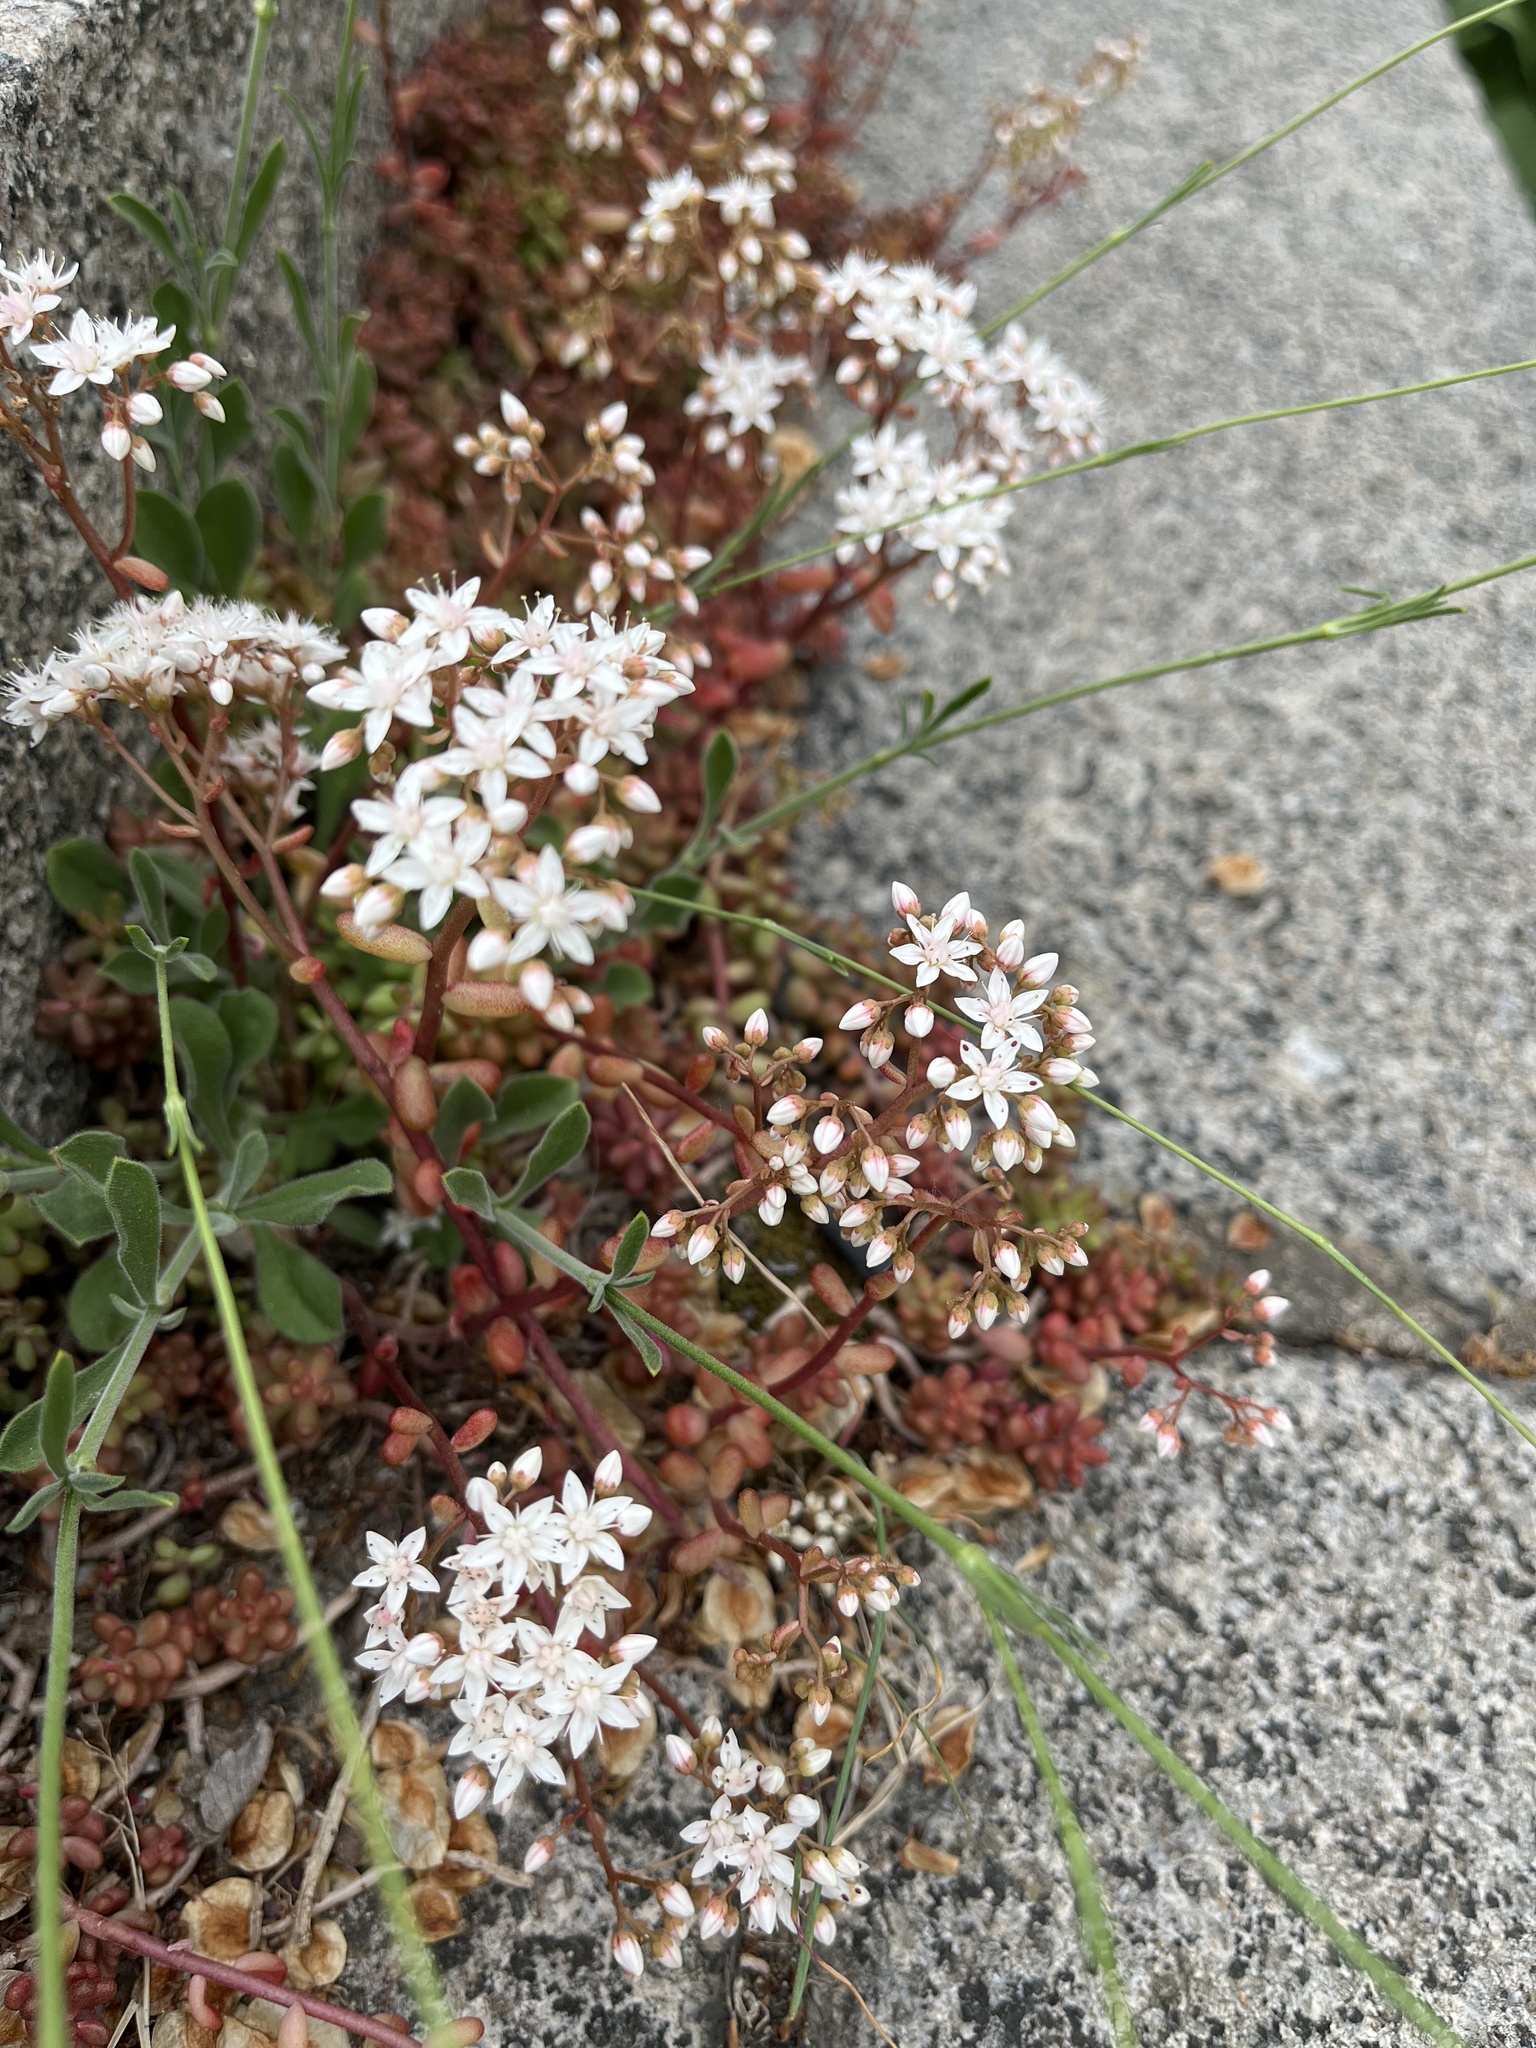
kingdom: Plantae
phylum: Tracheophyta
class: Magnoliopsida
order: Saxifragales
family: Crassulaceae
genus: Sedum
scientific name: Sedum album
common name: White stonecrop
